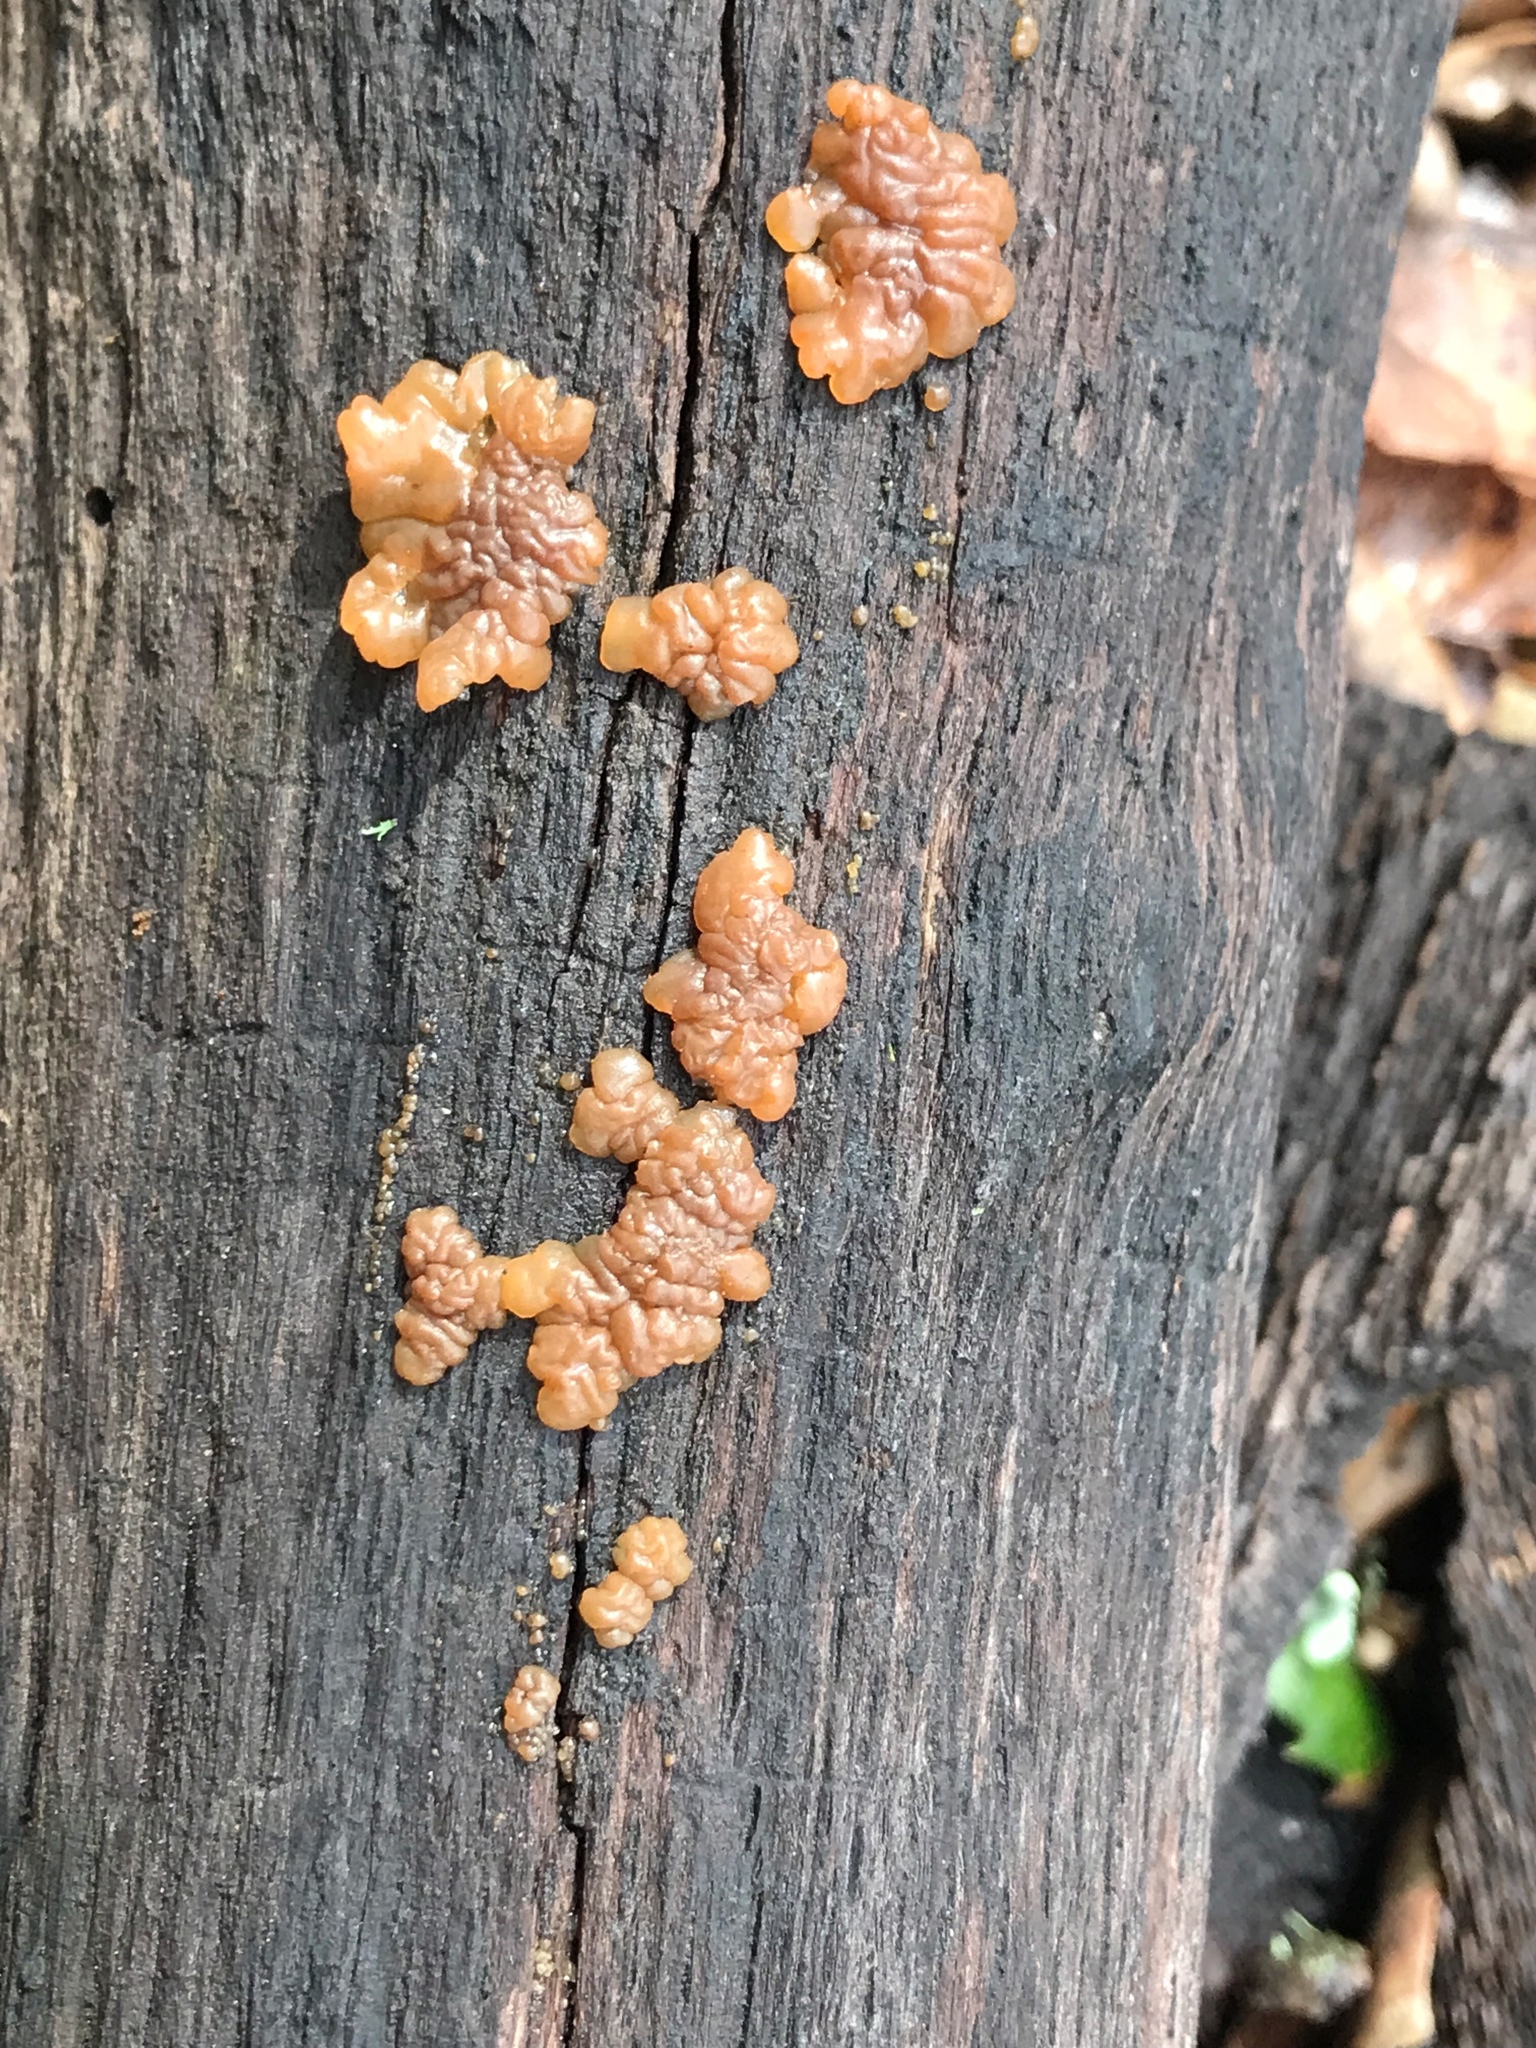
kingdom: Fungi
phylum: Basidiomycota
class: Agaricomycetes
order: Auriculariales
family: Hyaloriaceae
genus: Myxarium
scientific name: Myxarium nucleatum
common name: Crystal brain fungus
